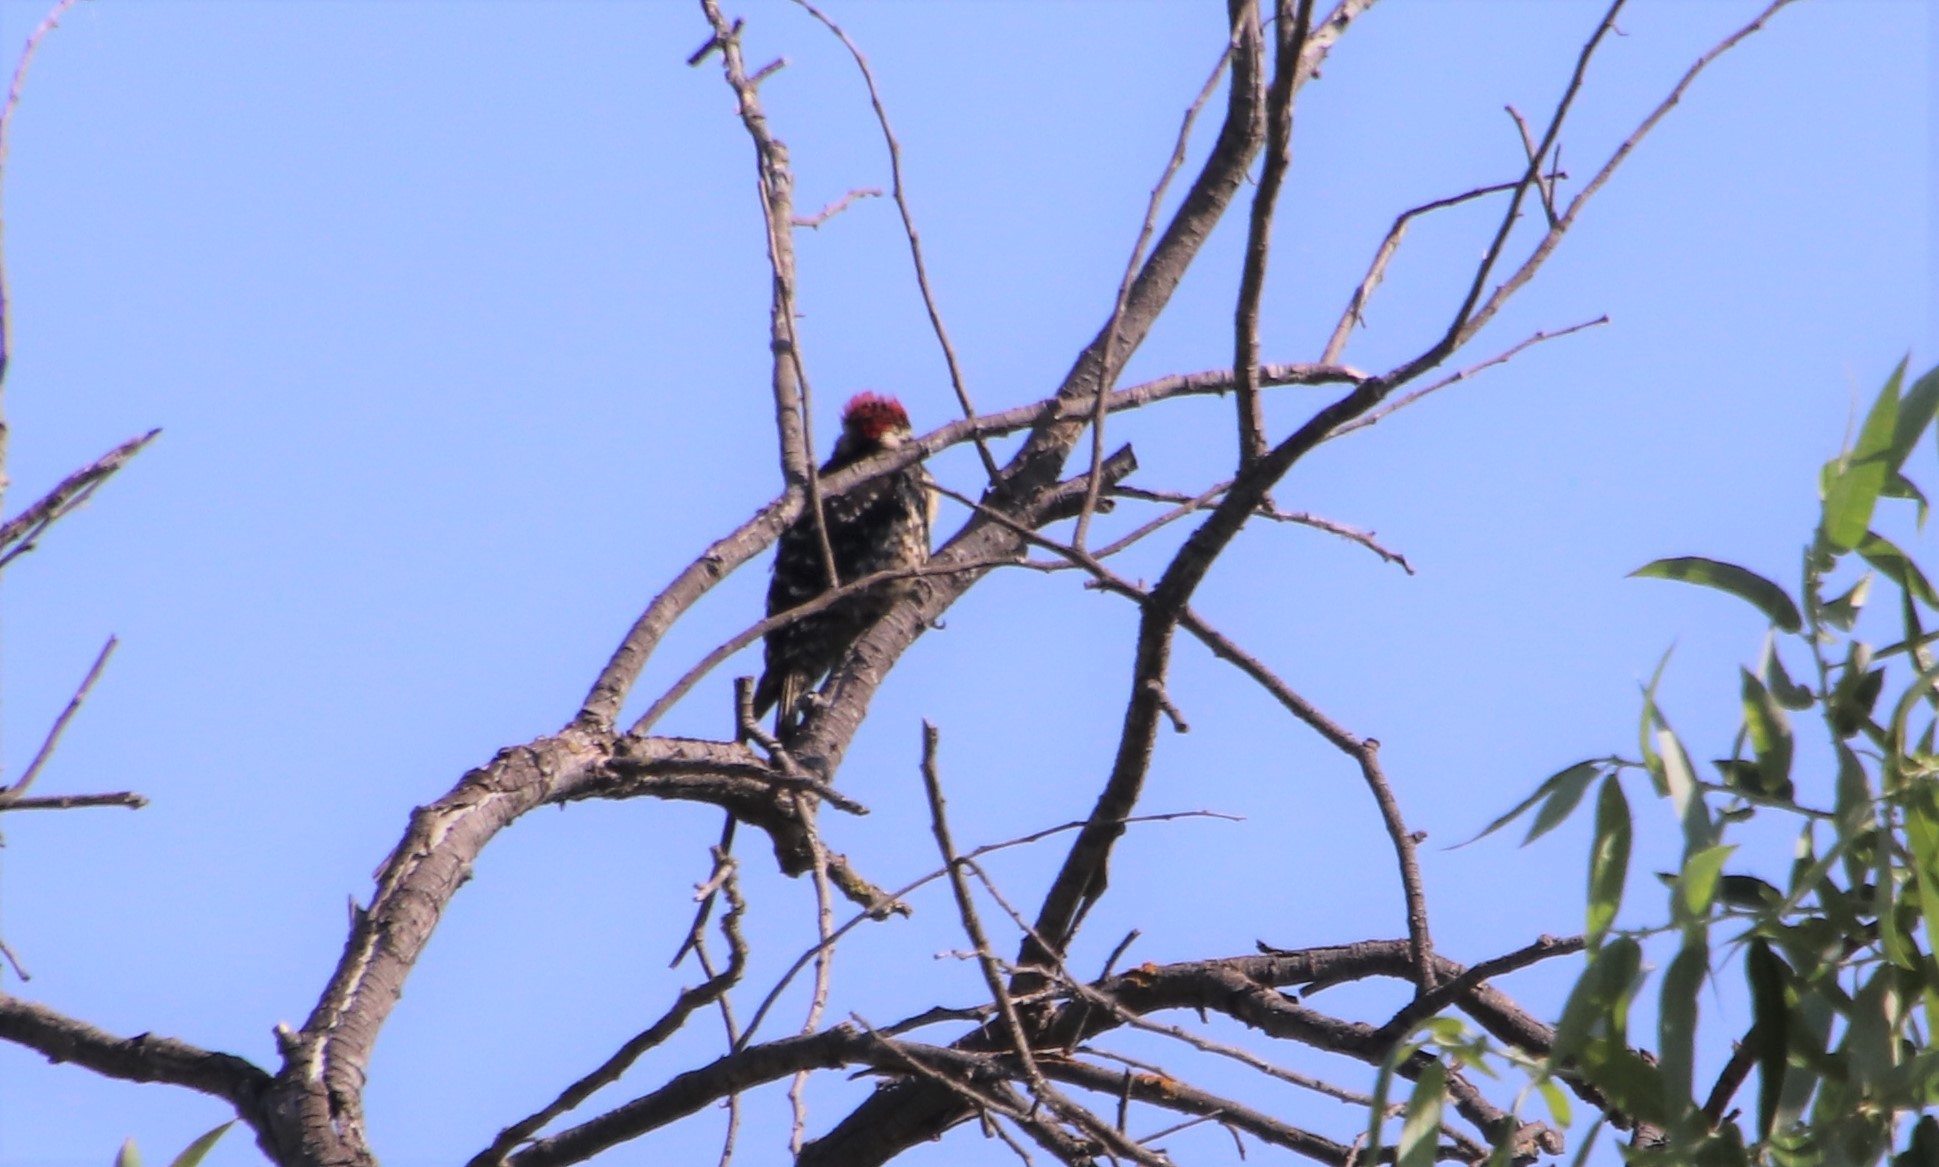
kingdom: Animalia
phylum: Chordata
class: Aves
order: Piciformes
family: Picidae
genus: Dryobates
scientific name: Dryobates nuttallii
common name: Nuttall's woodpecker
